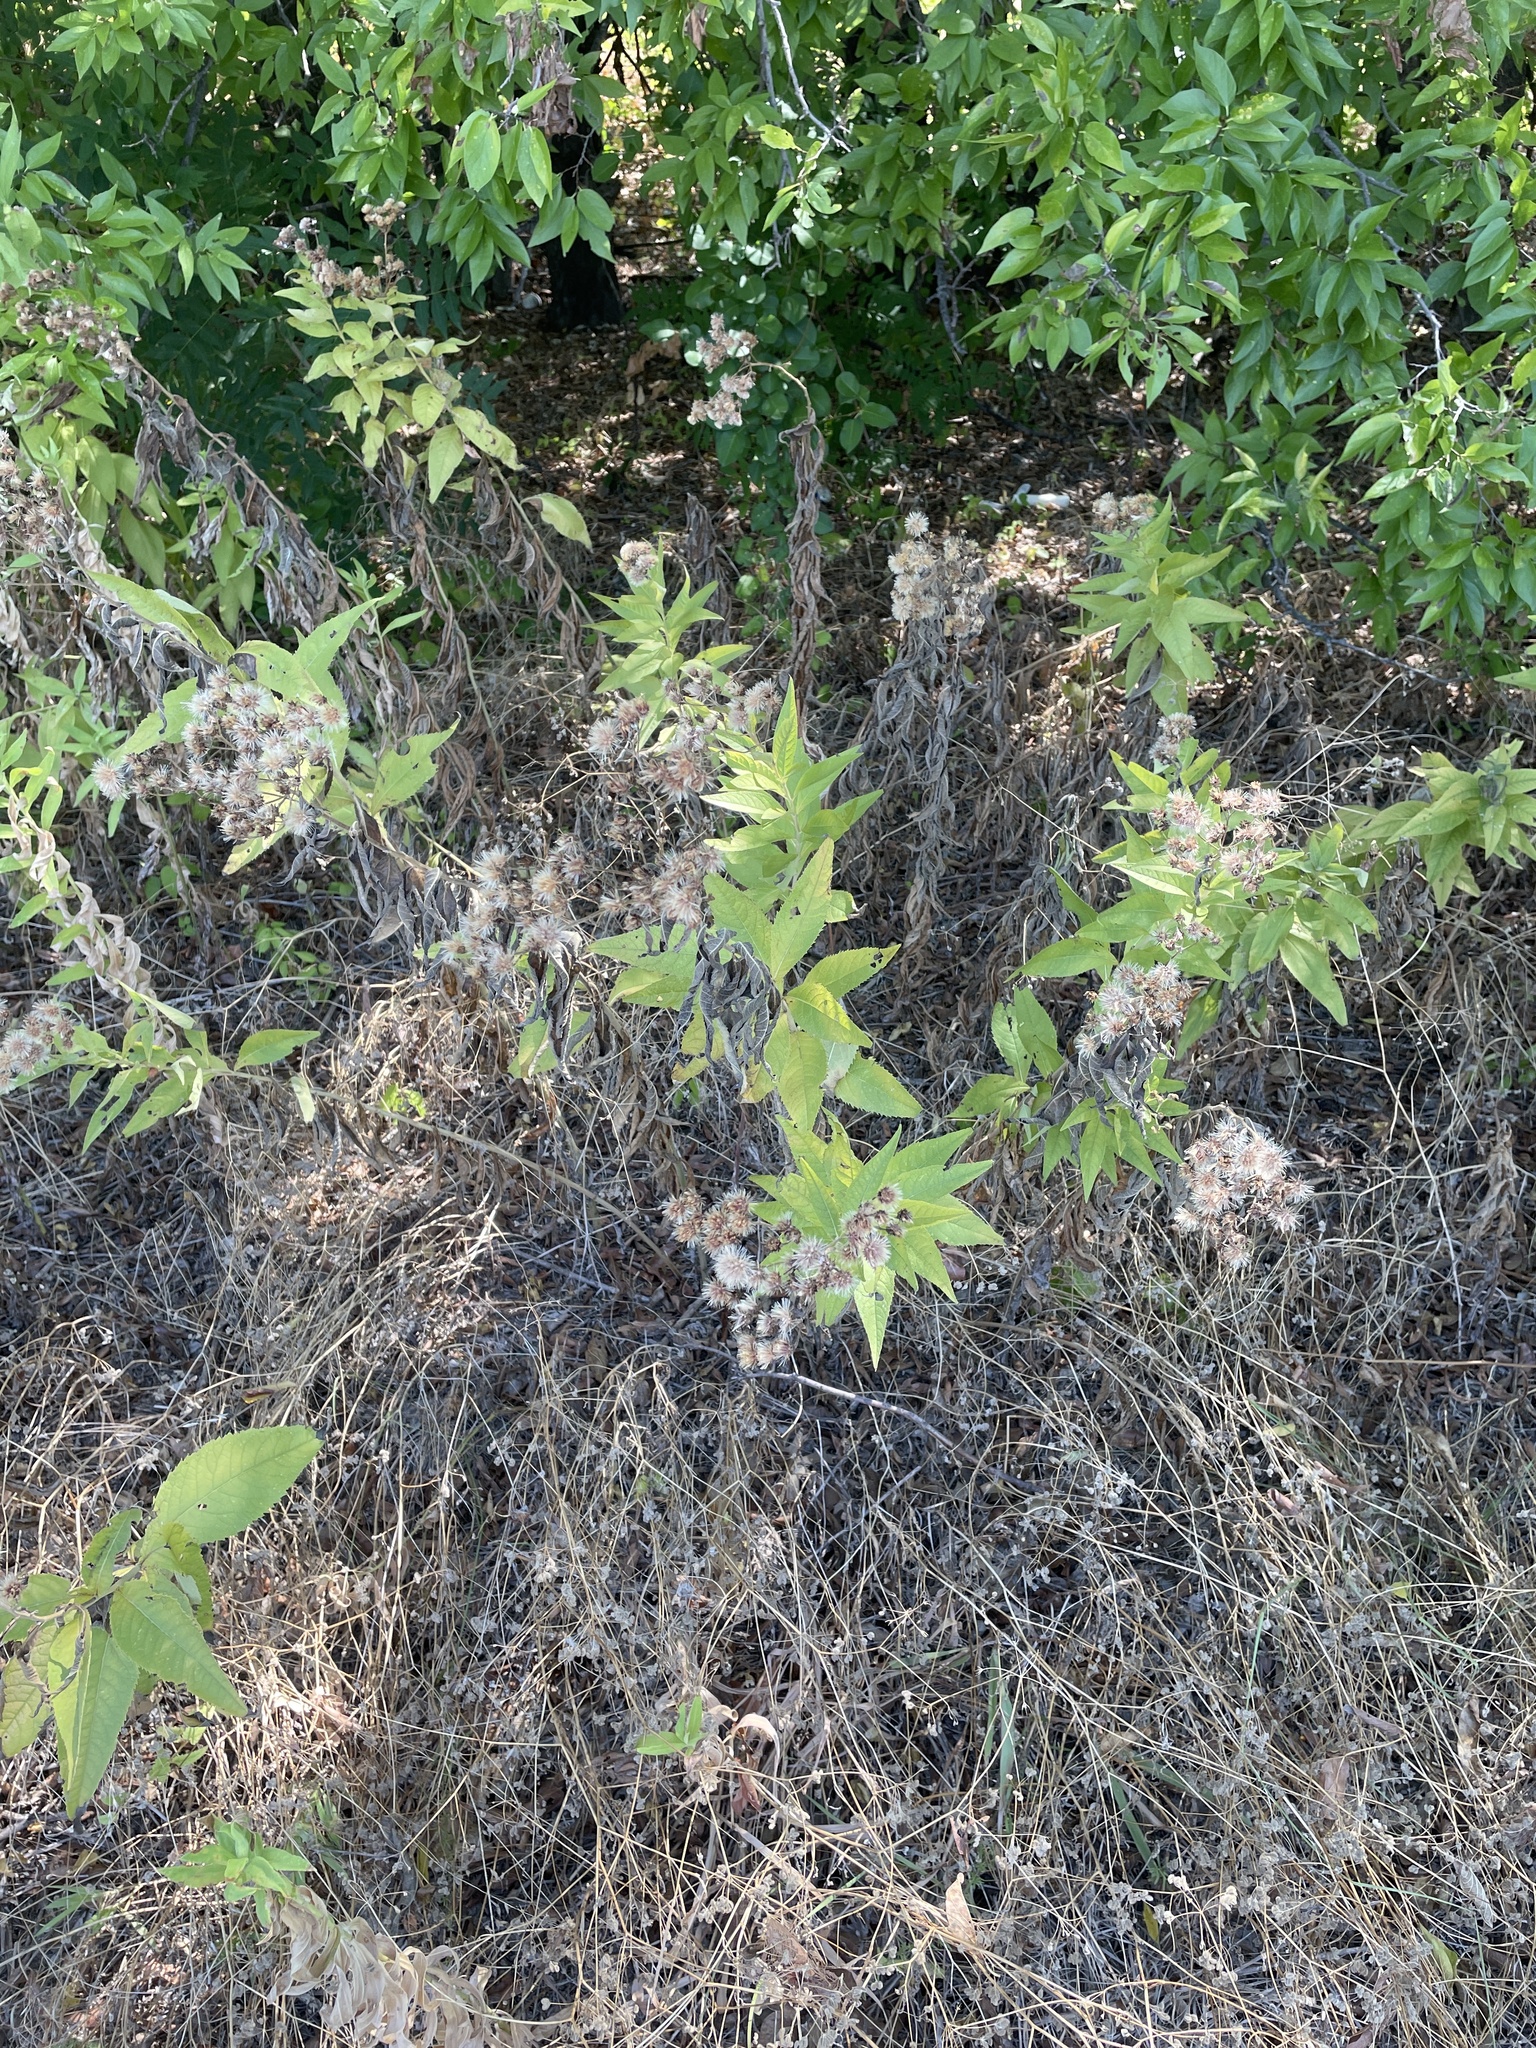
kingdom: Plantae
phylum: Tracheophyta
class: Magnoliopsida
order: Asterales
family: Asteraceae
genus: Vernonia
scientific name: Vernonia baldwinii
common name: Western ironweed
